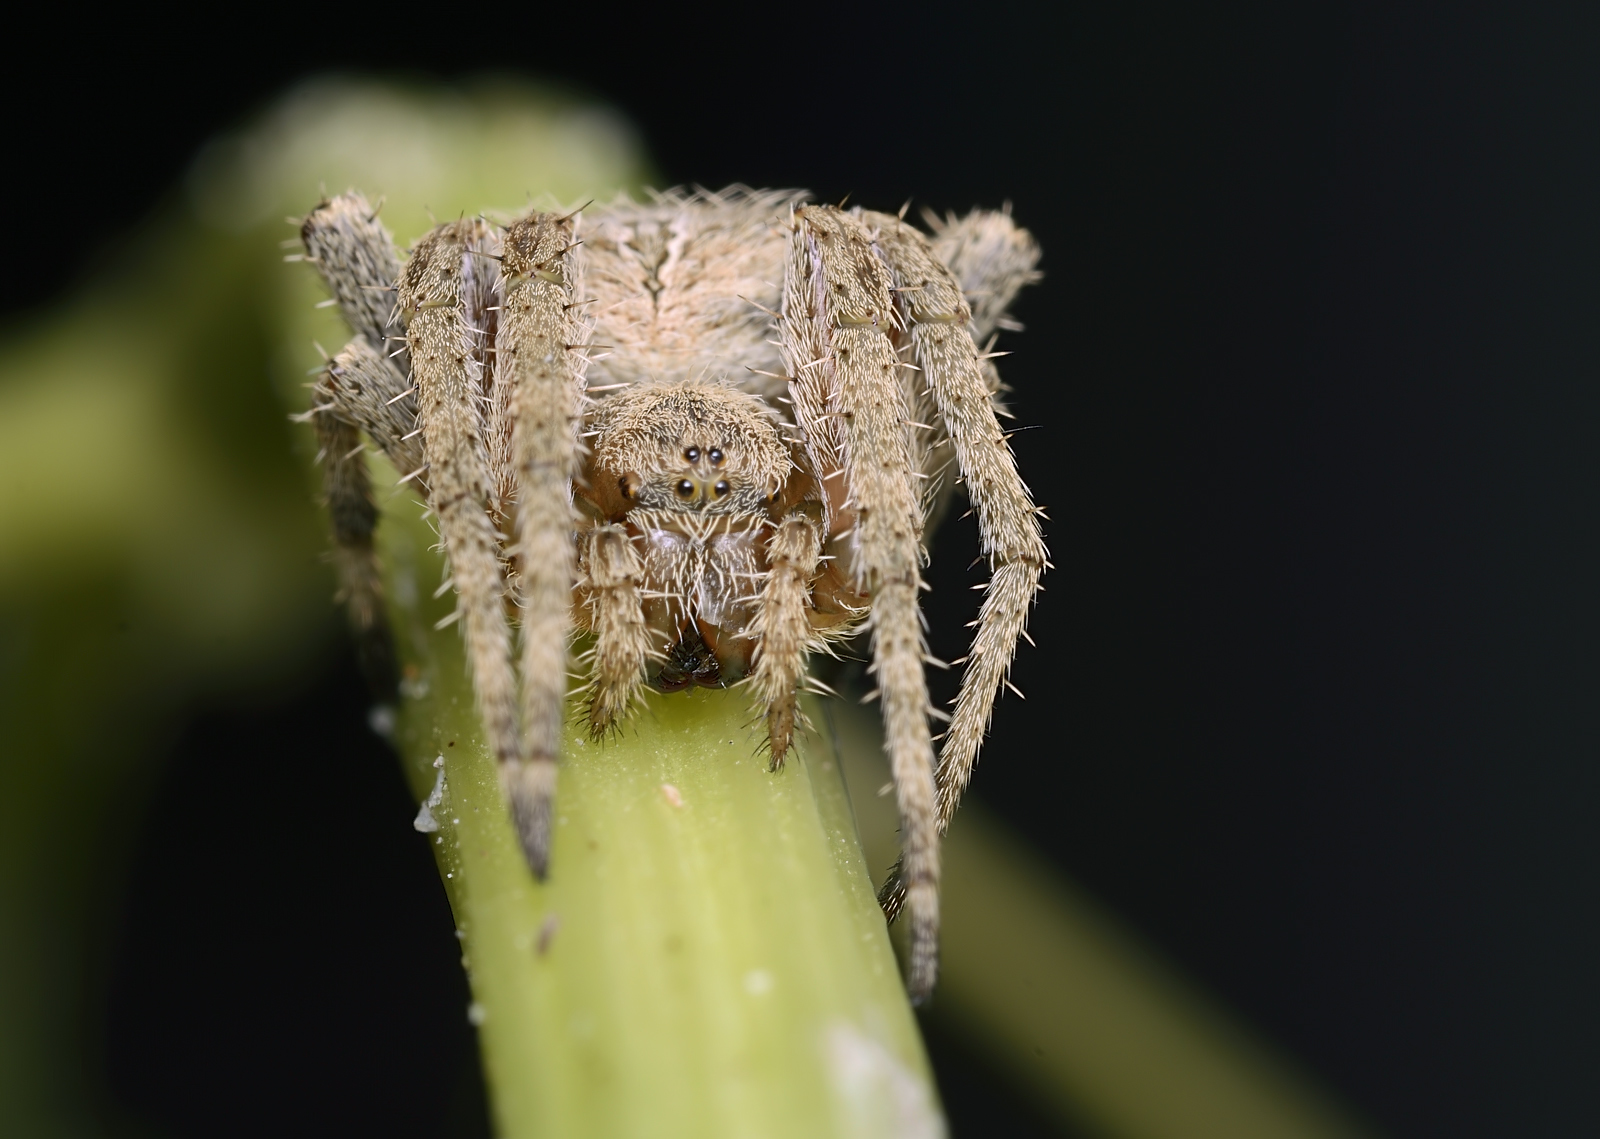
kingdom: Animalia
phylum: Arthropoda
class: Arachnida
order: Araneae
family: Araneidae
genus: Neoscona
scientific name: Neoscona punctigera
